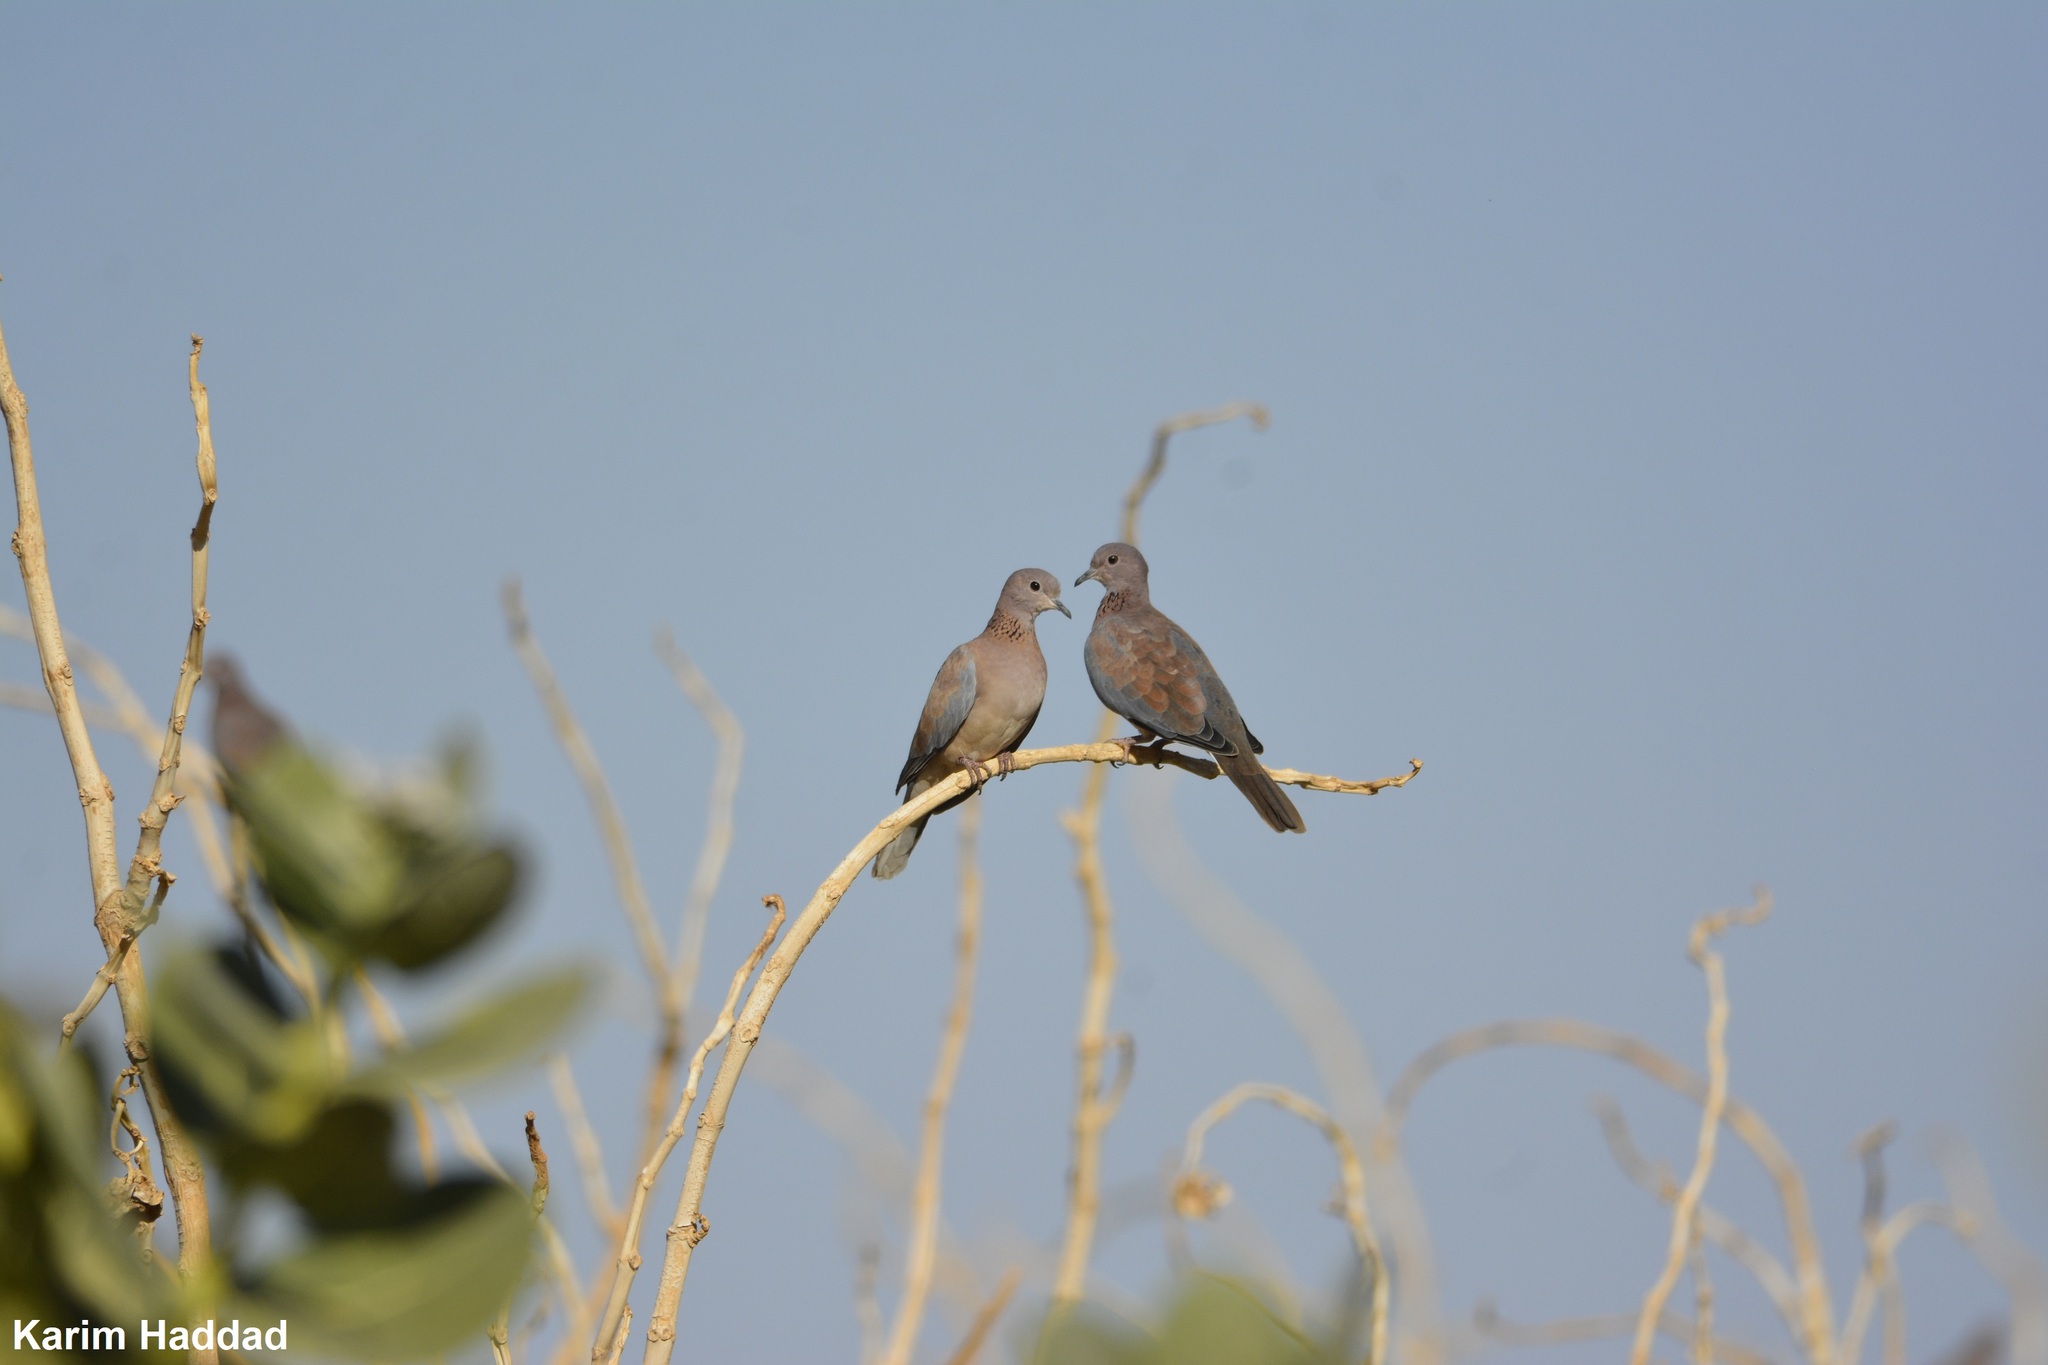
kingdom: Animalia
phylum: Chordata
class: Aves
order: Columbiformes
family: Columbidae
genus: Spilopelia
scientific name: Spilopelia senegalensis
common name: Laughing dove
